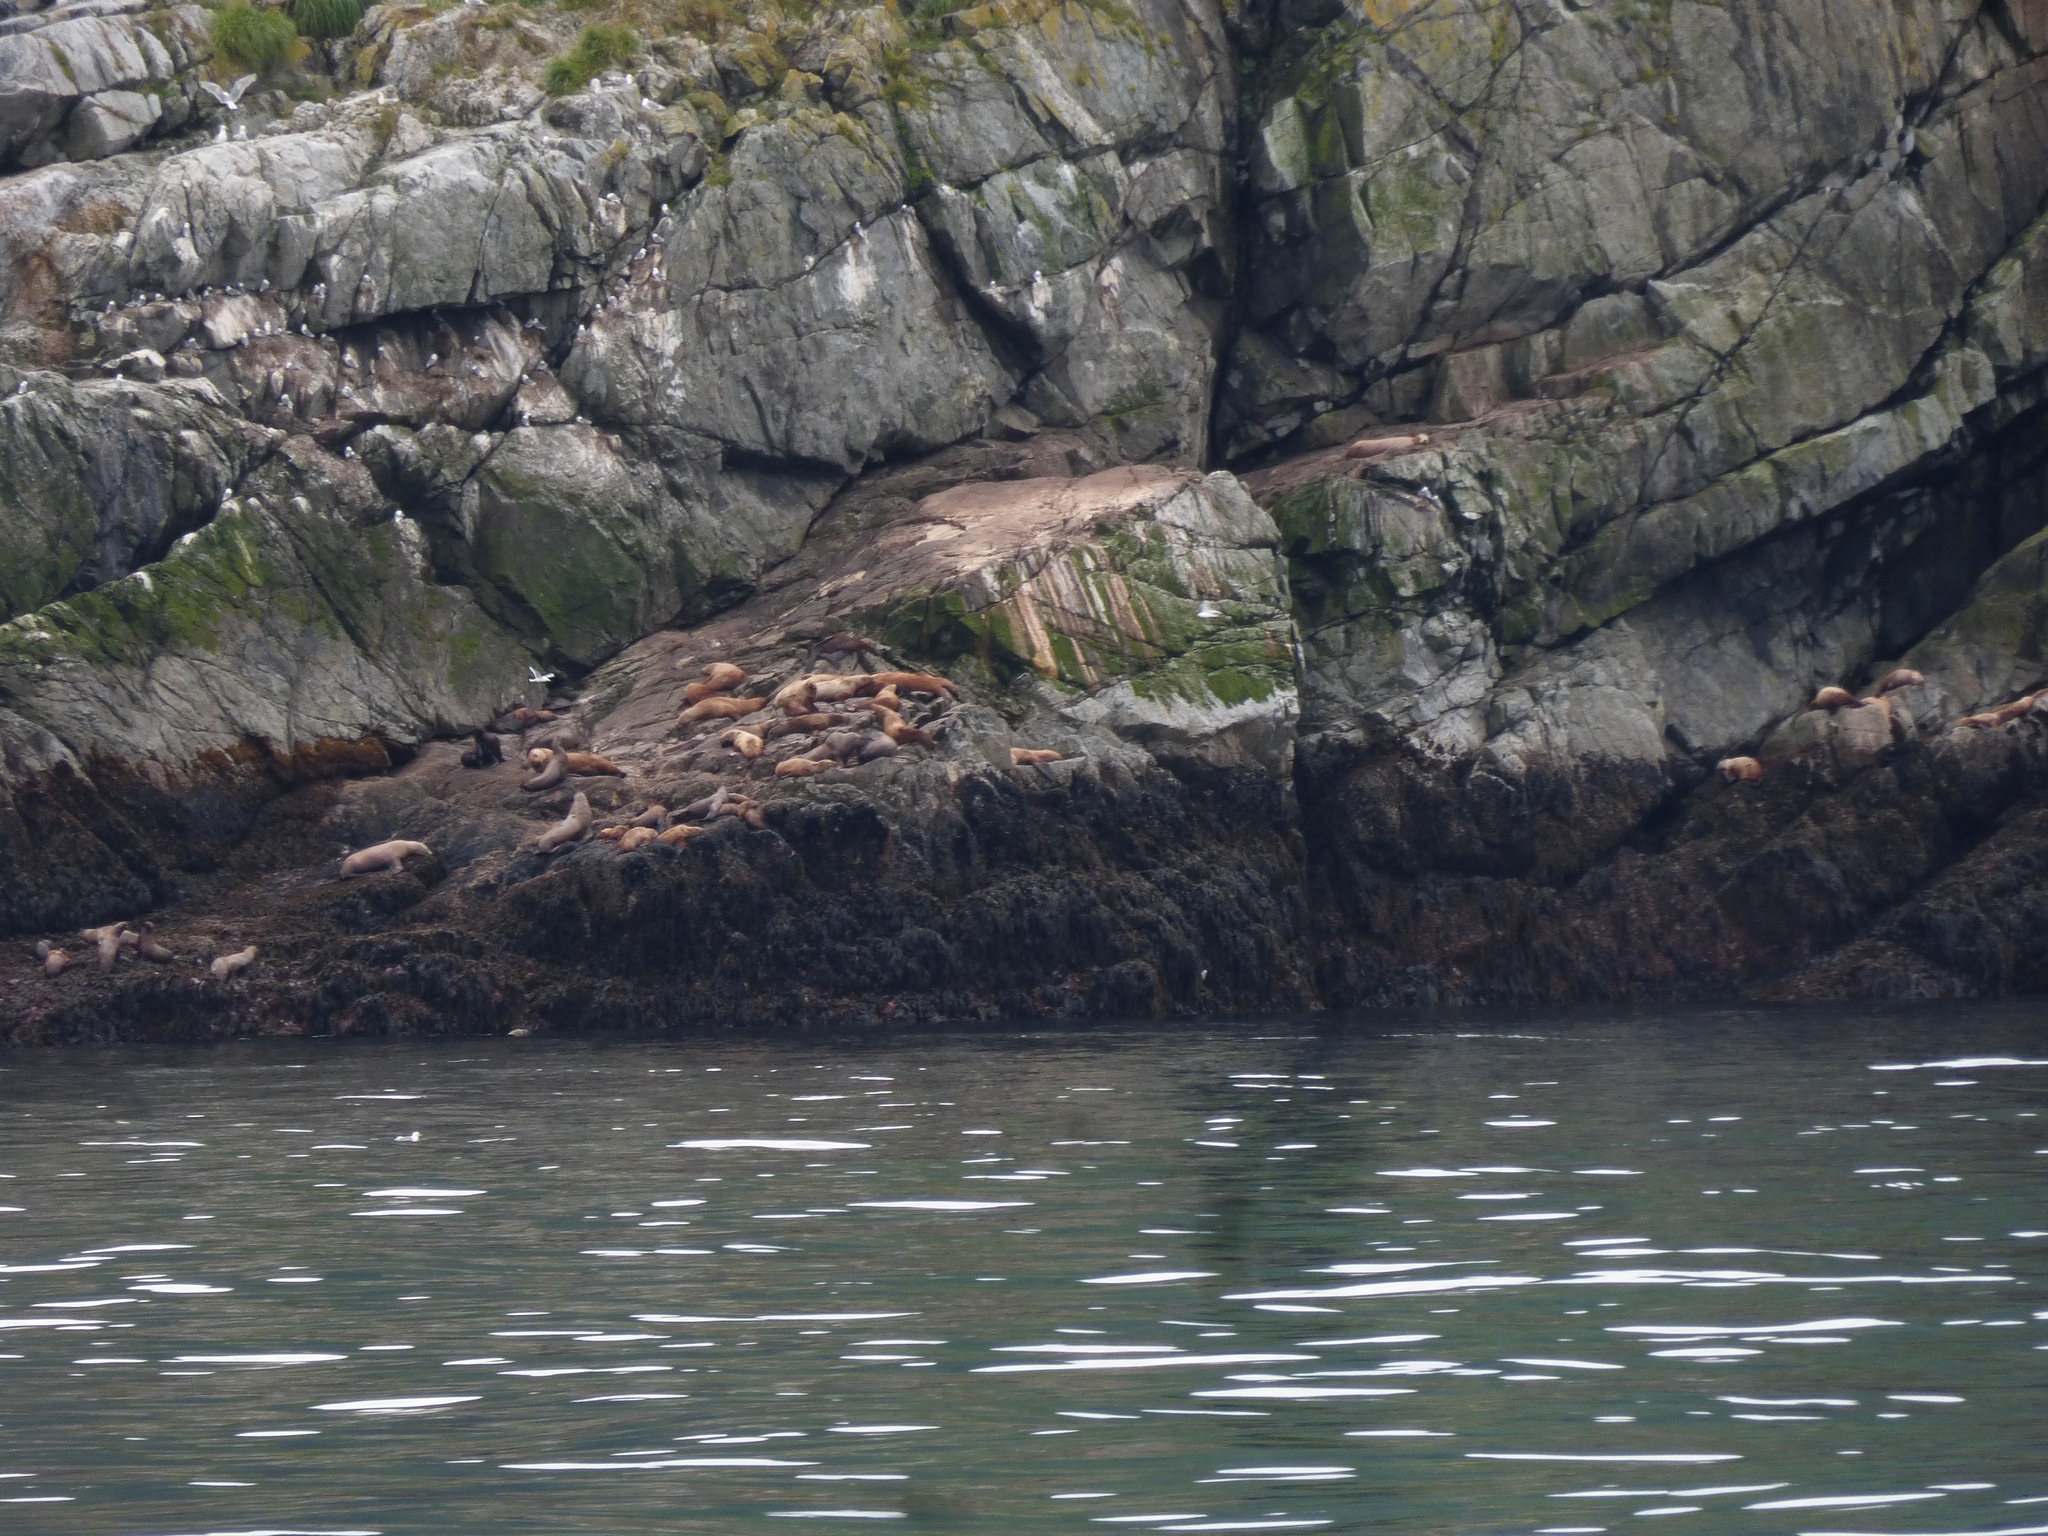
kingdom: Animalia
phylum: Chordata
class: Mammalia
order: Carnivora
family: Otariidae
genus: Eumetopias
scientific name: Eumetopias jubatus
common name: Steller sea lion
